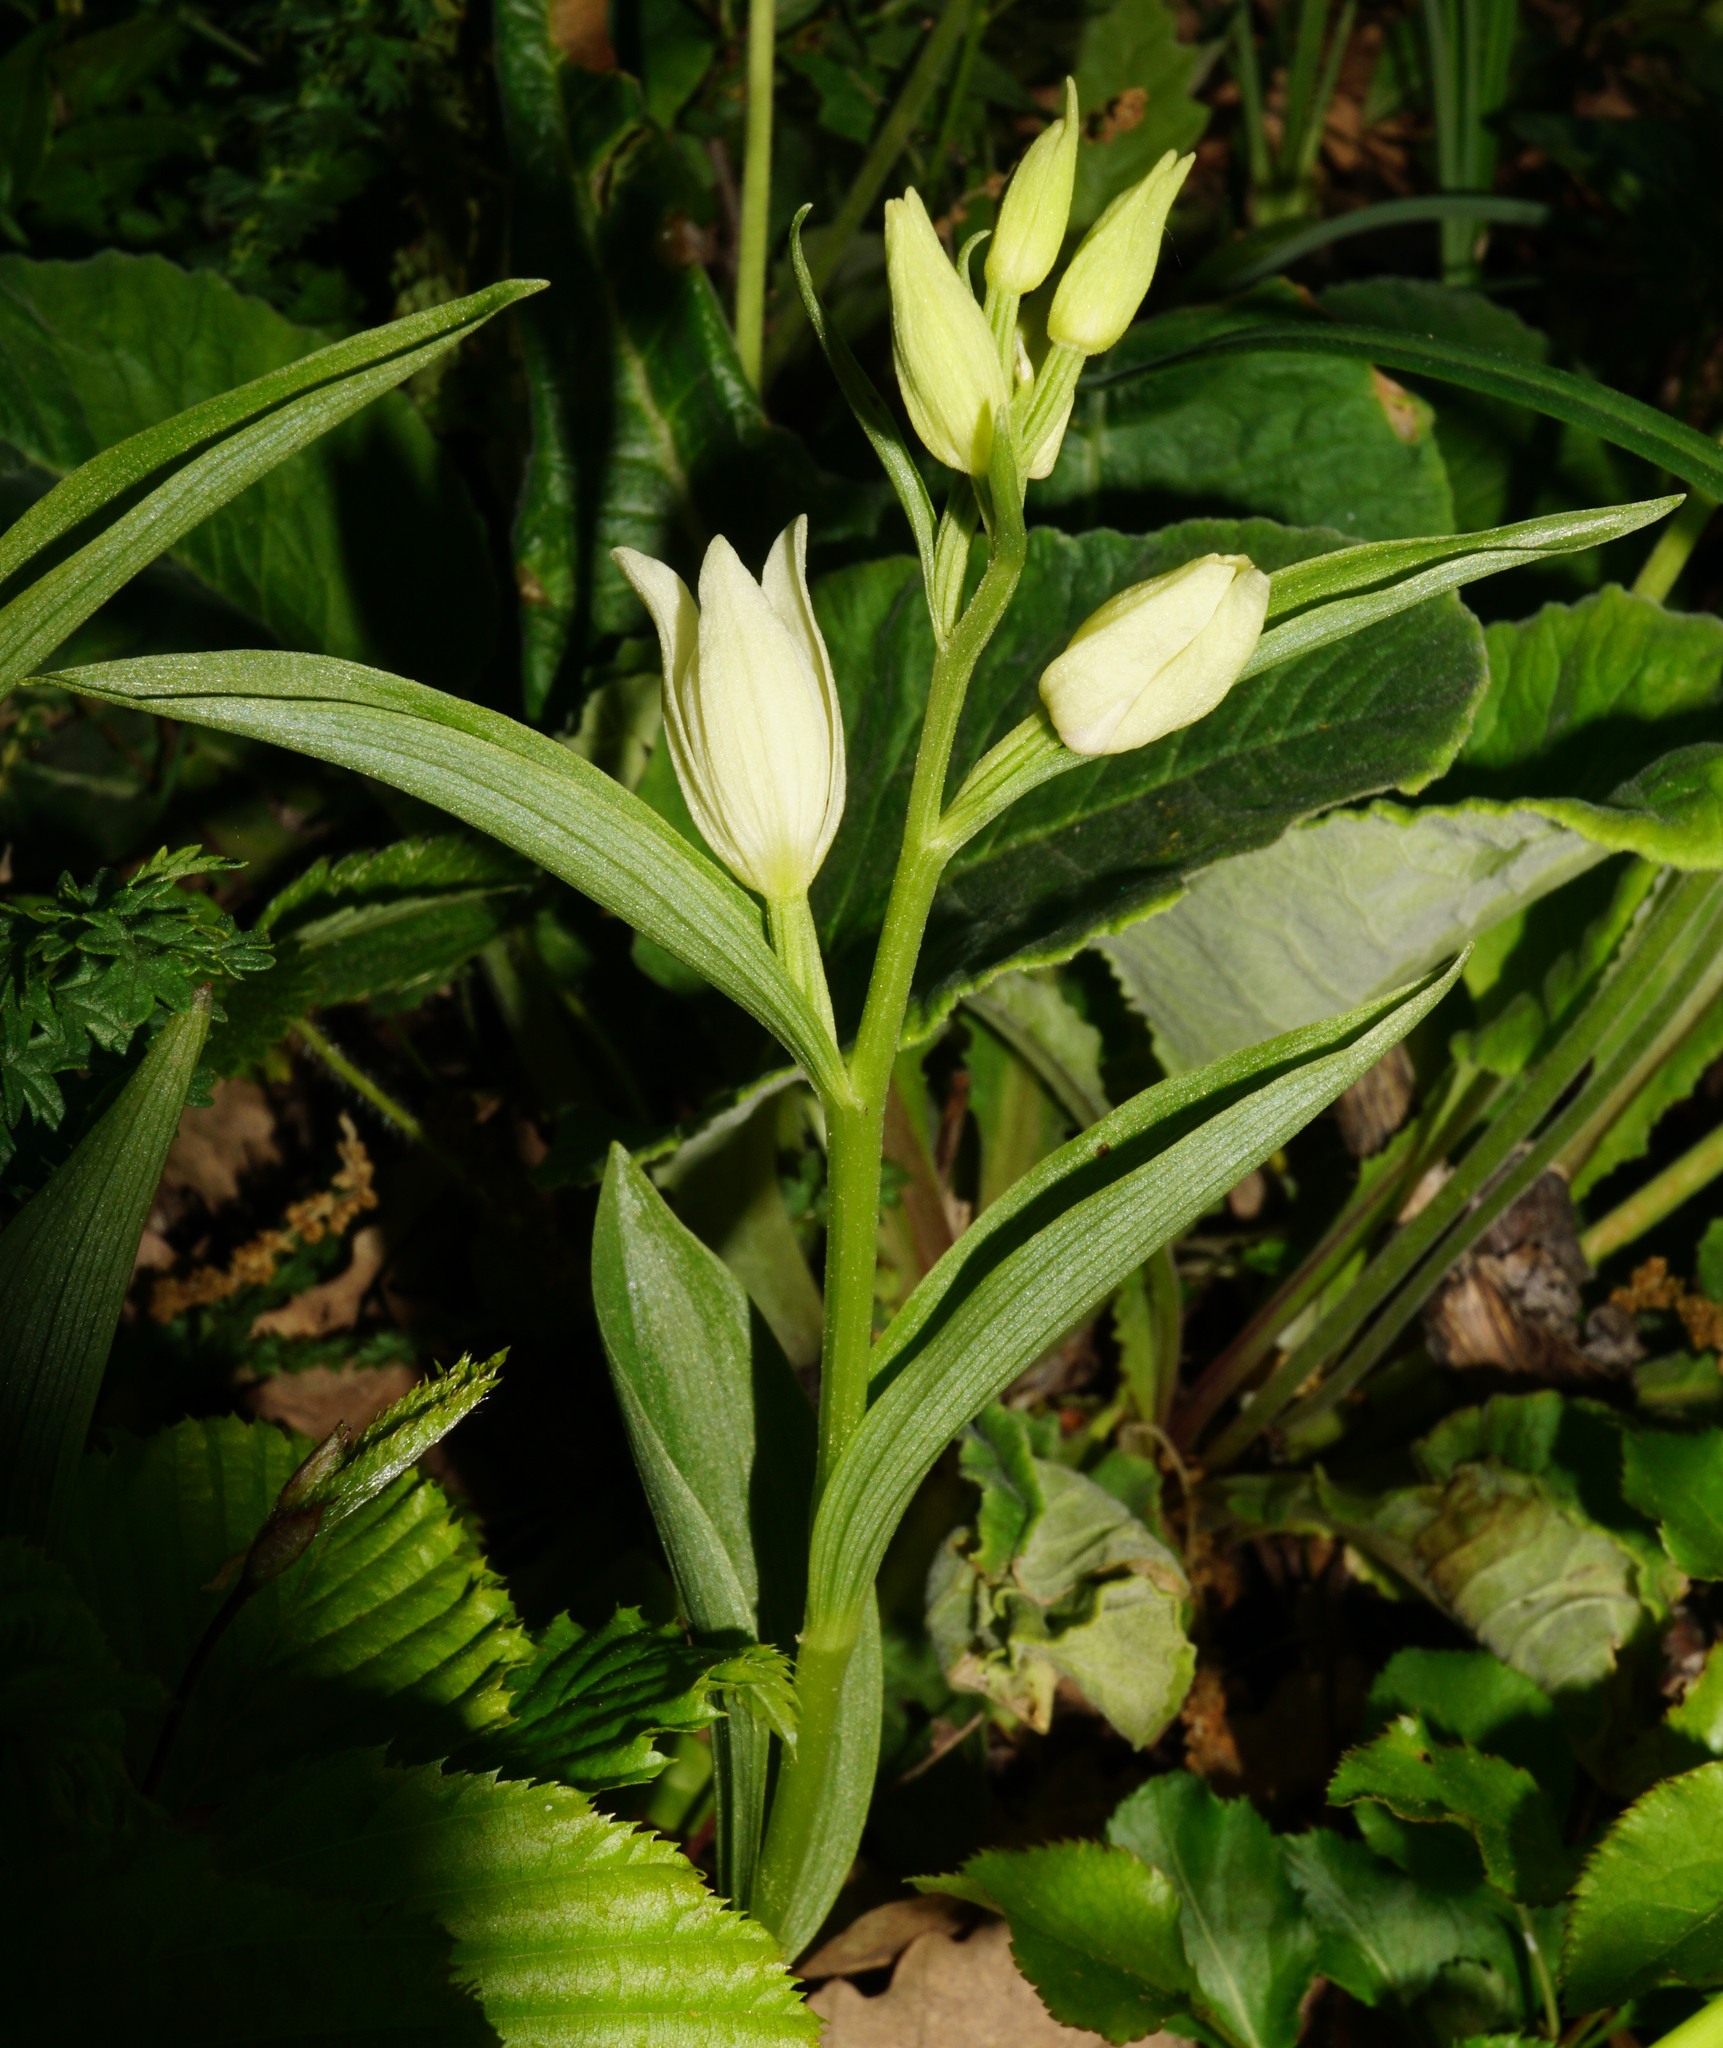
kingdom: Plantae
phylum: Tracheophyta
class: Liliopsida
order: Asparagales
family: Orchidaceae
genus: Cephalanthera
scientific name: Cephalanthera damasonium
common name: White helleborine
